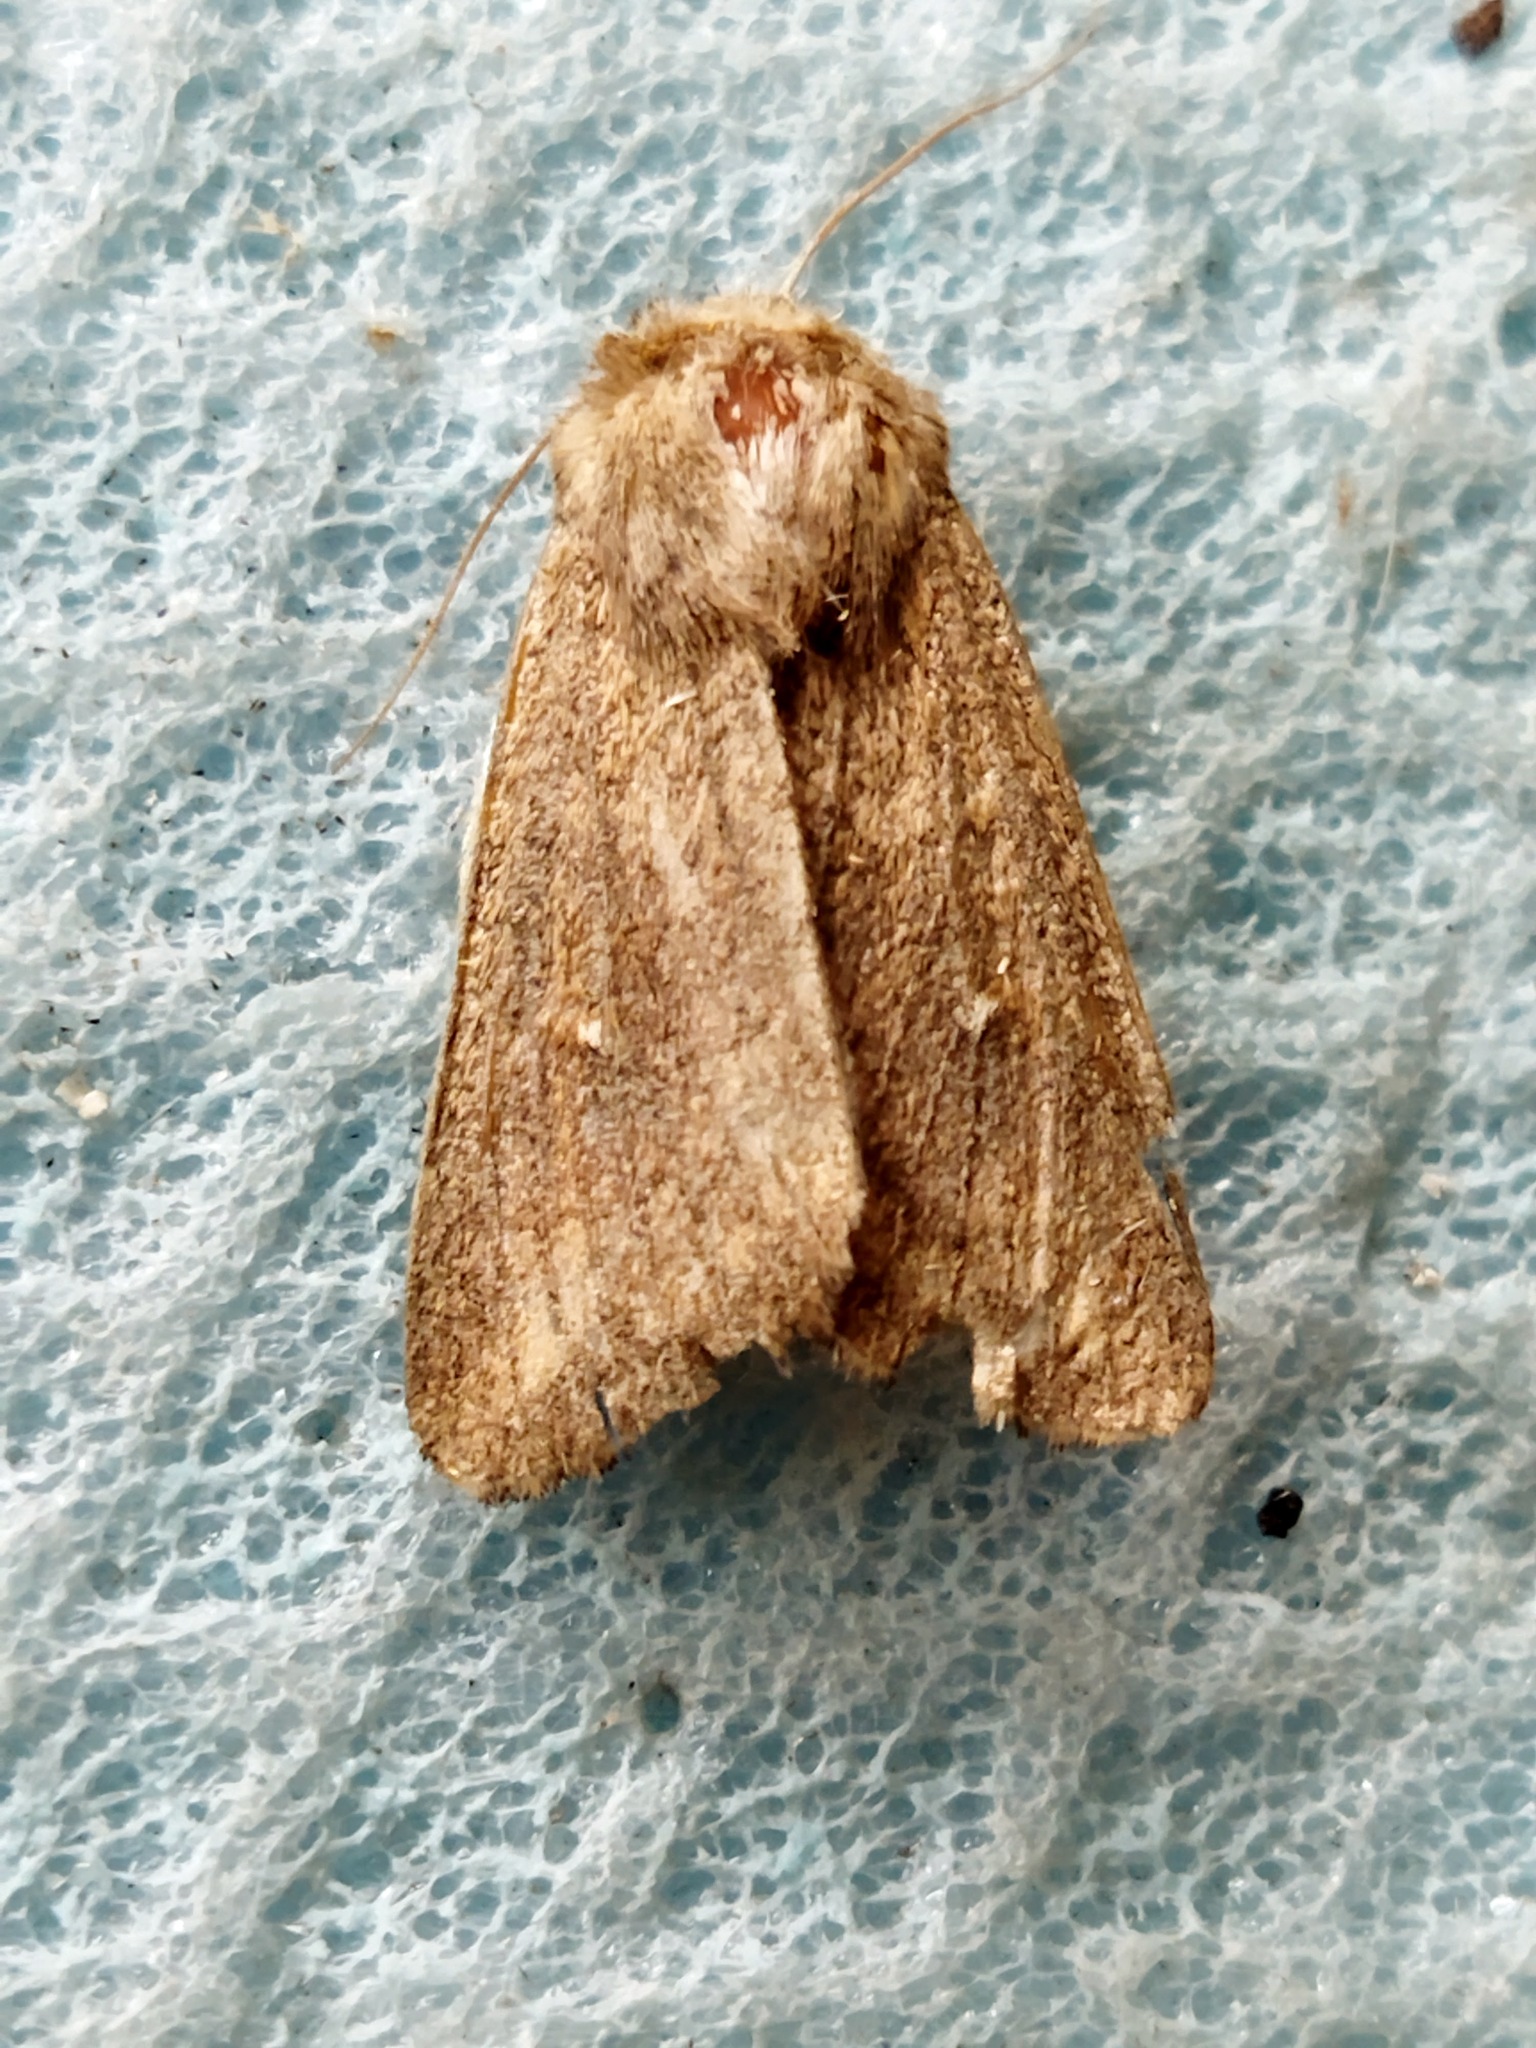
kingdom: Animalia
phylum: Arthropoda
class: Insecta
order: Lepidoptera
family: Noctuidae
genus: Mythimna
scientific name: Mythimna albipuncta
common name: White-point
